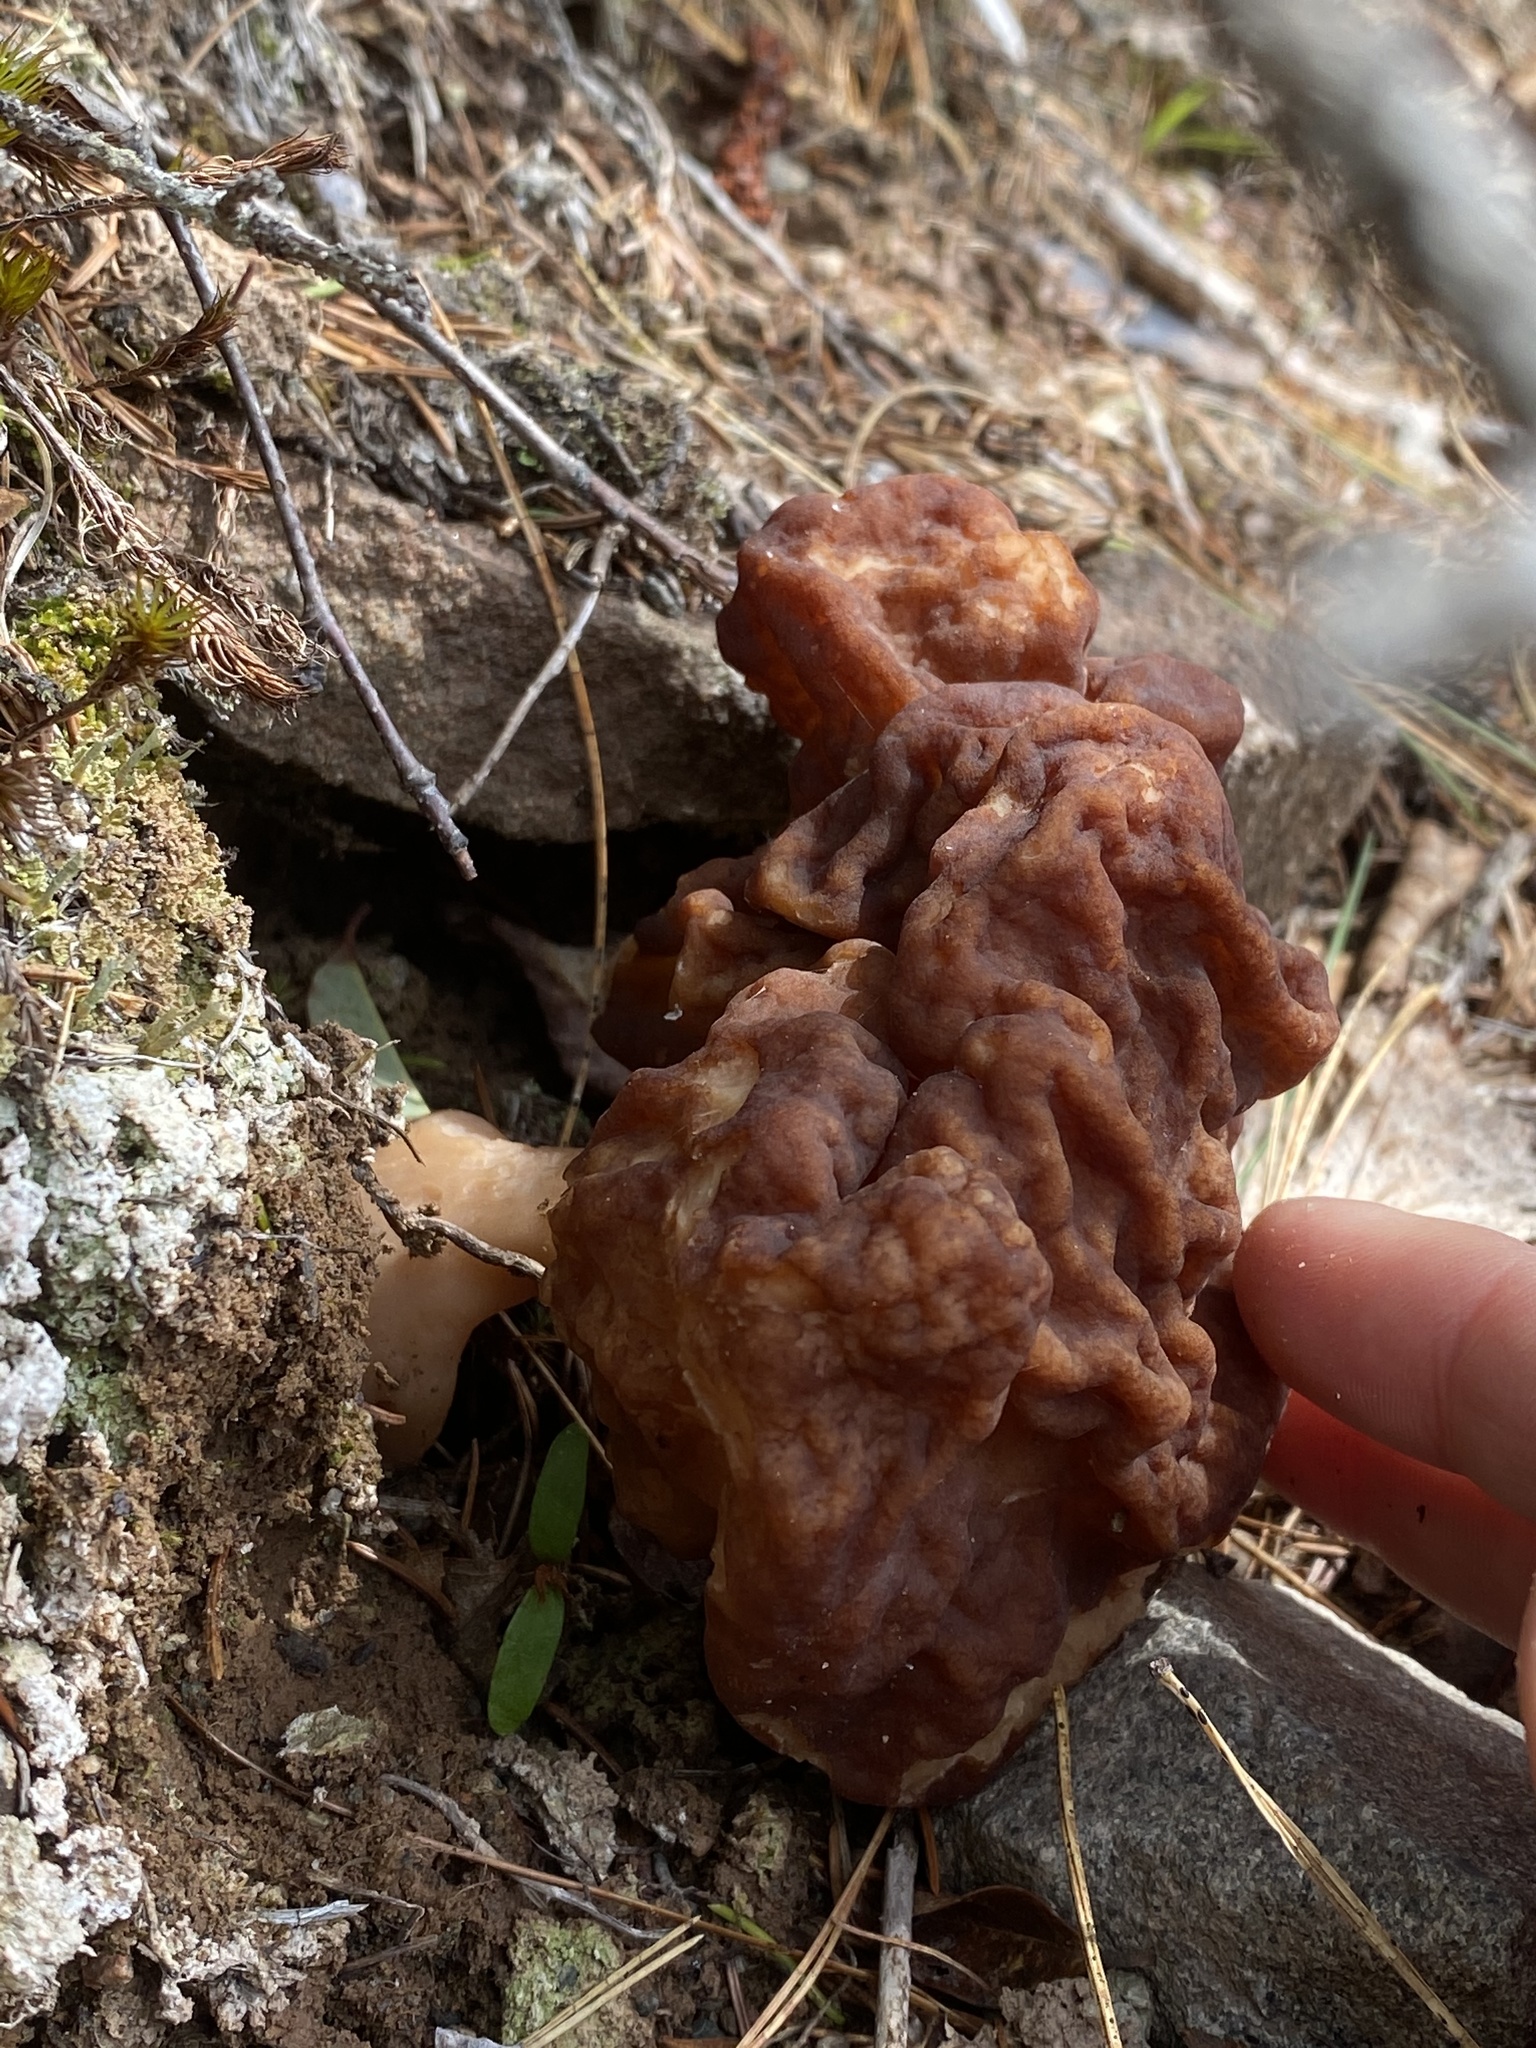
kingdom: Fungi
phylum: Ascomycota
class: Pezizomycetes
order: Pezizales
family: Discinaceae
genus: Gyromitra
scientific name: Gyromitra esculenta
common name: False morel
